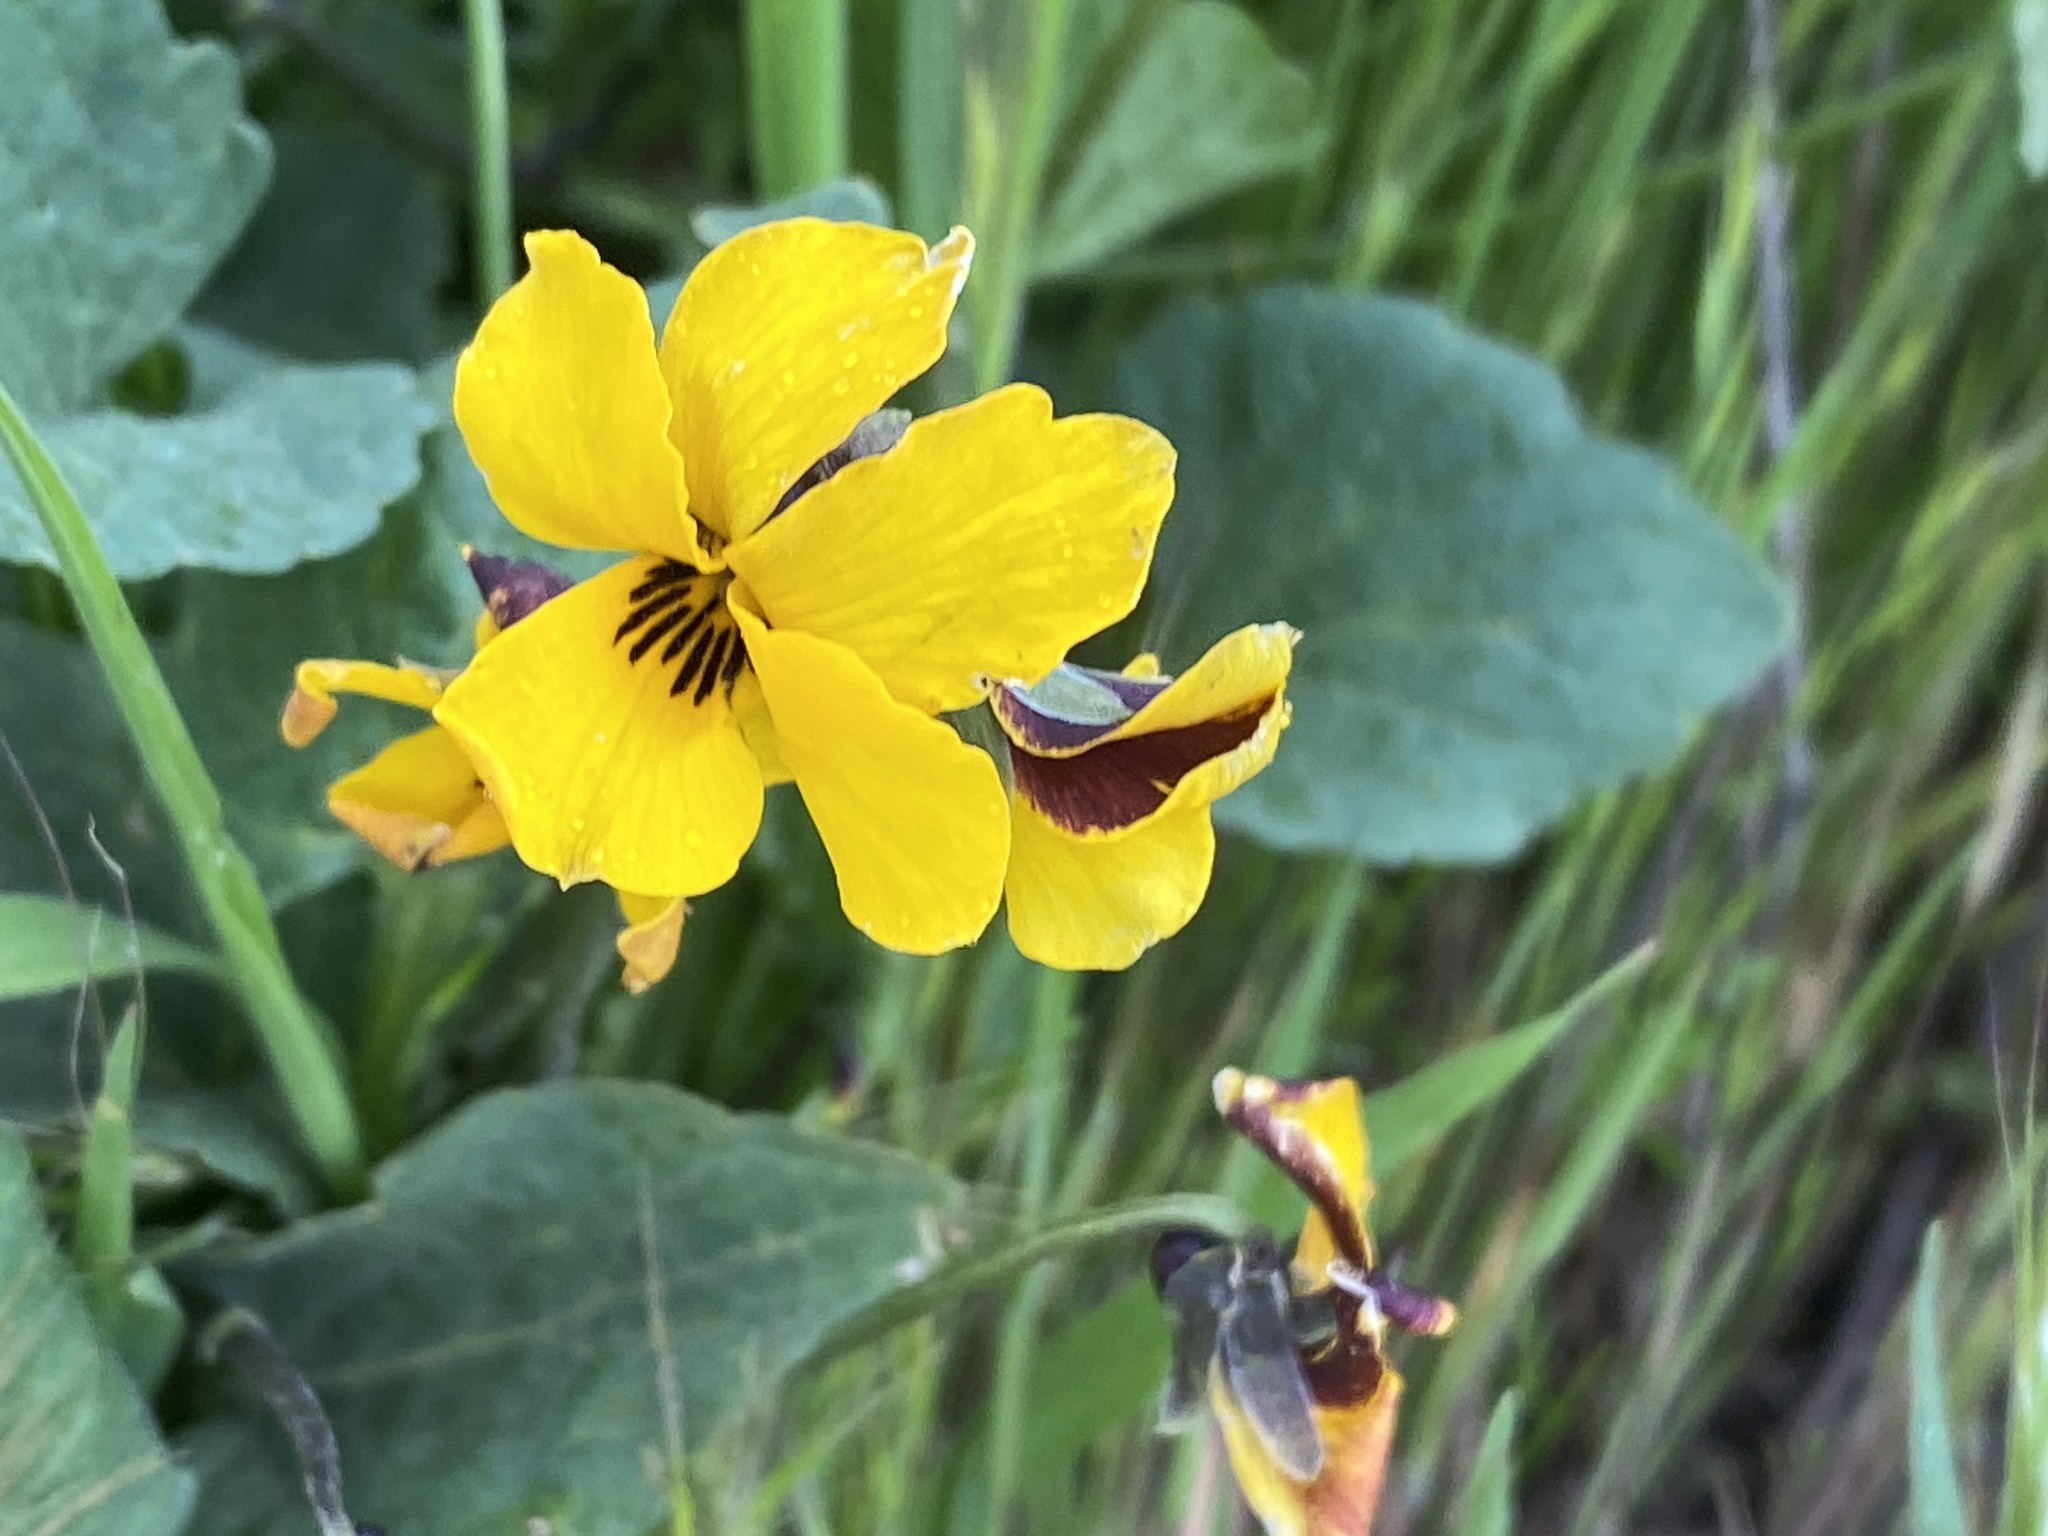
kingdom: Plantae
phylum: Tracheophyta
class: Magnoliopsida
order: Malpighiales
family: Violaceae
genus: Viola
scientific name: Viola pedunculata
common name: California golden violet
